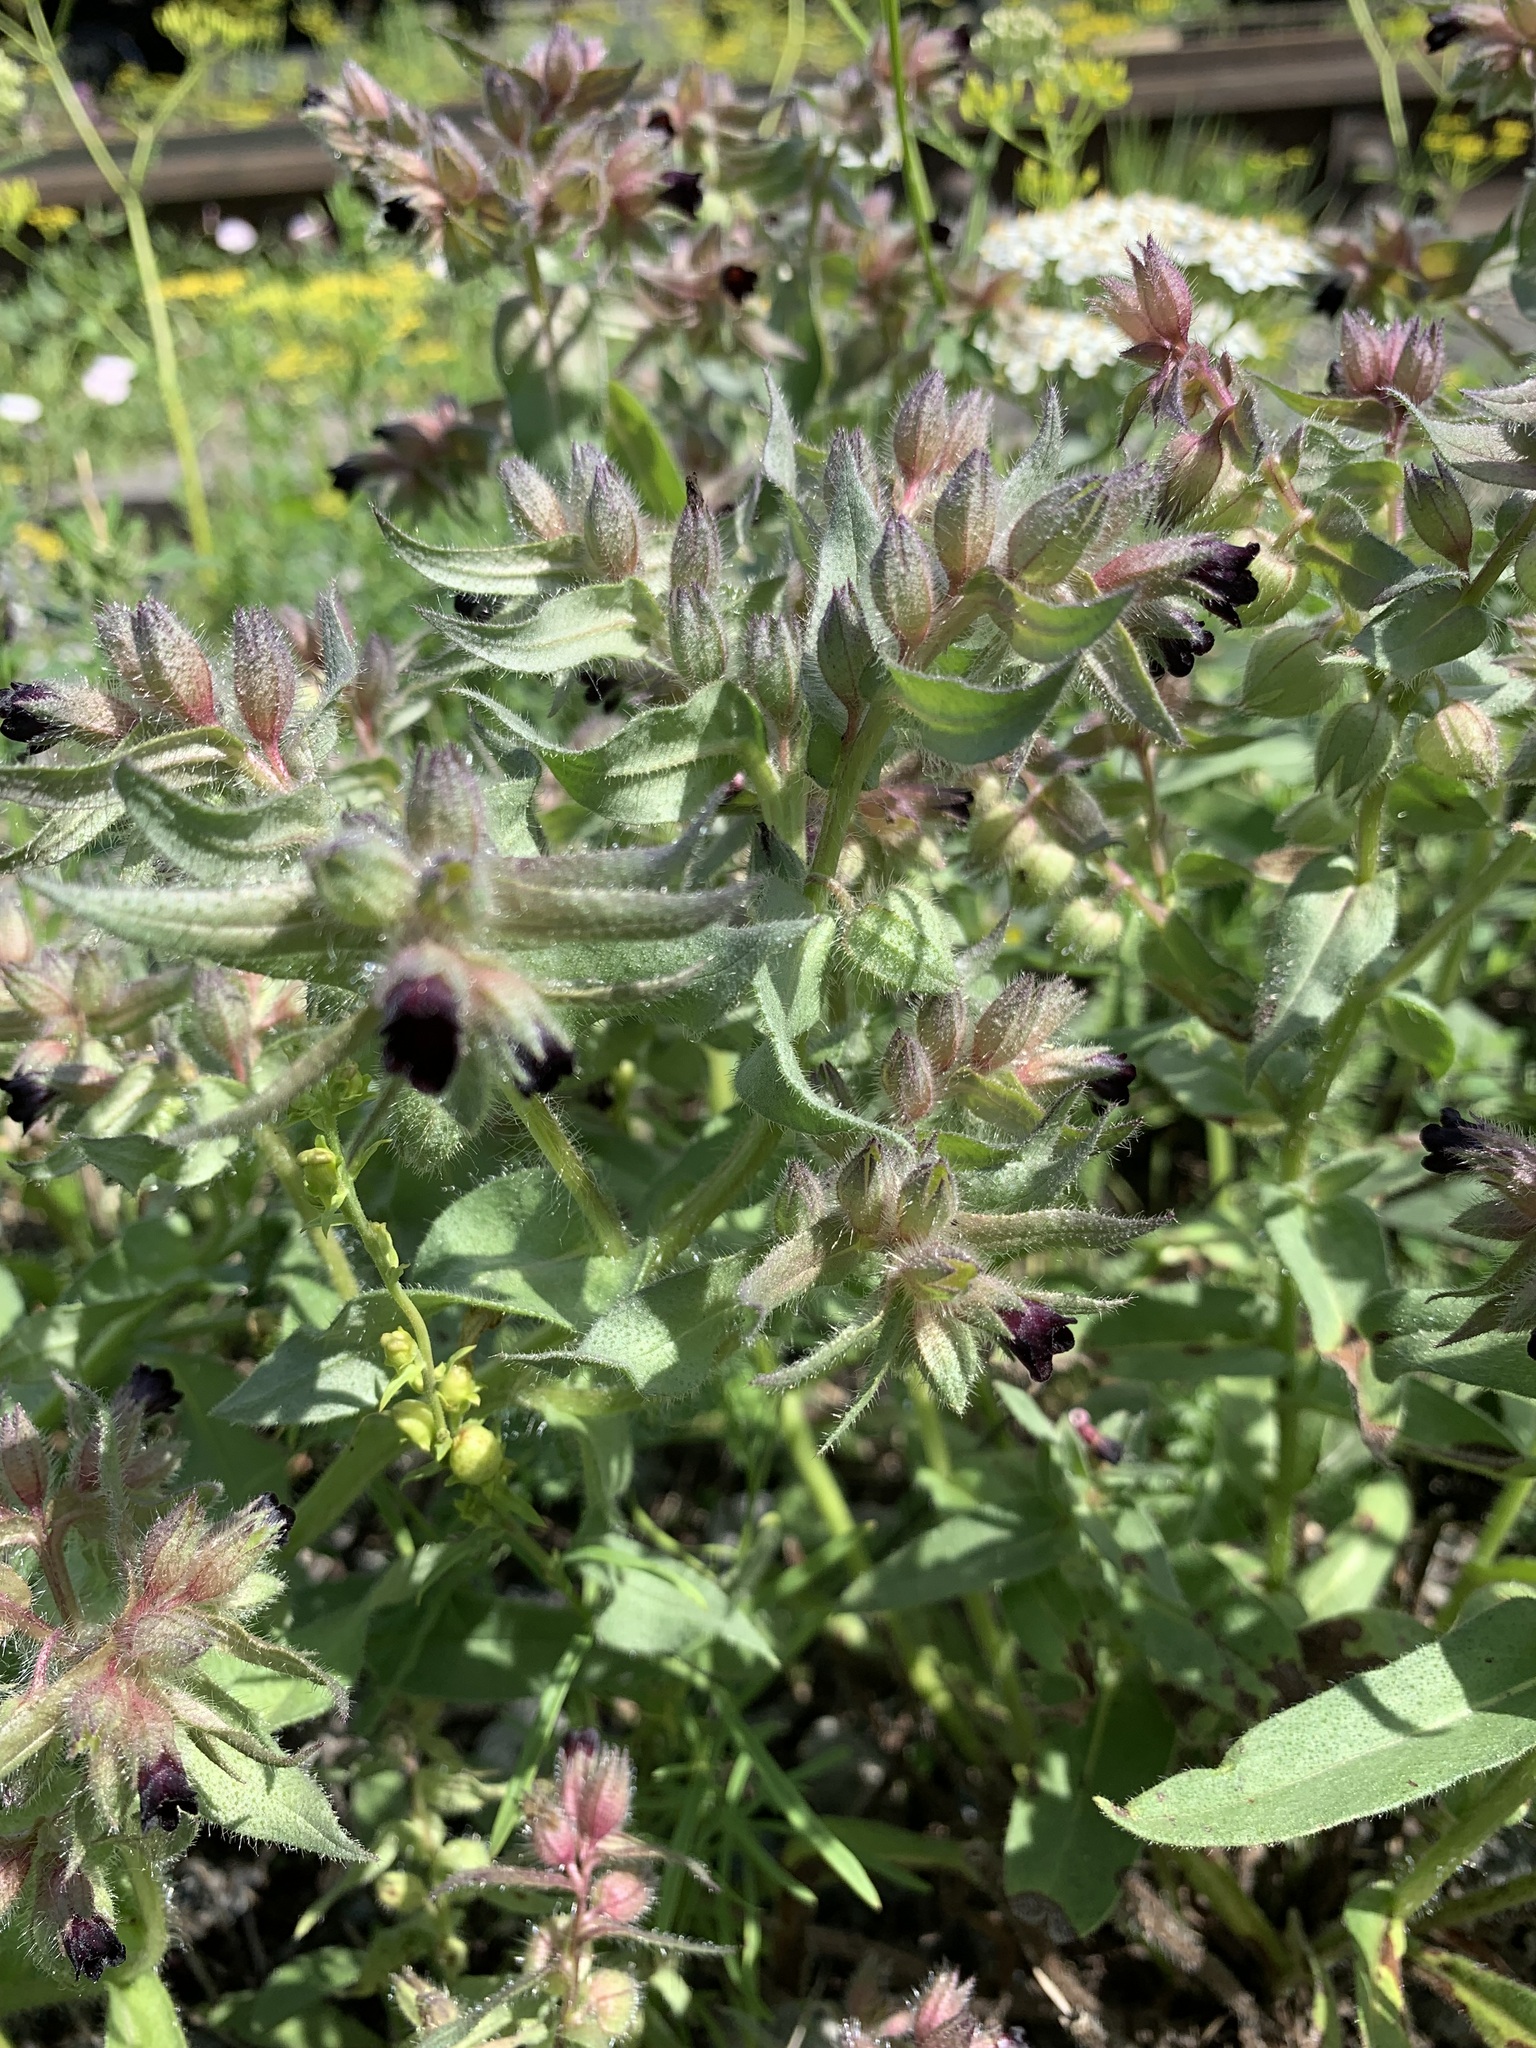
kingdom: Plantae
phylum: Tracheophyta
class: Magnoliopsida
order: Boraginales
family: Boraginaceae
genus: Nonea
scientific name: Nonea pulla
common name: Brown nonea
